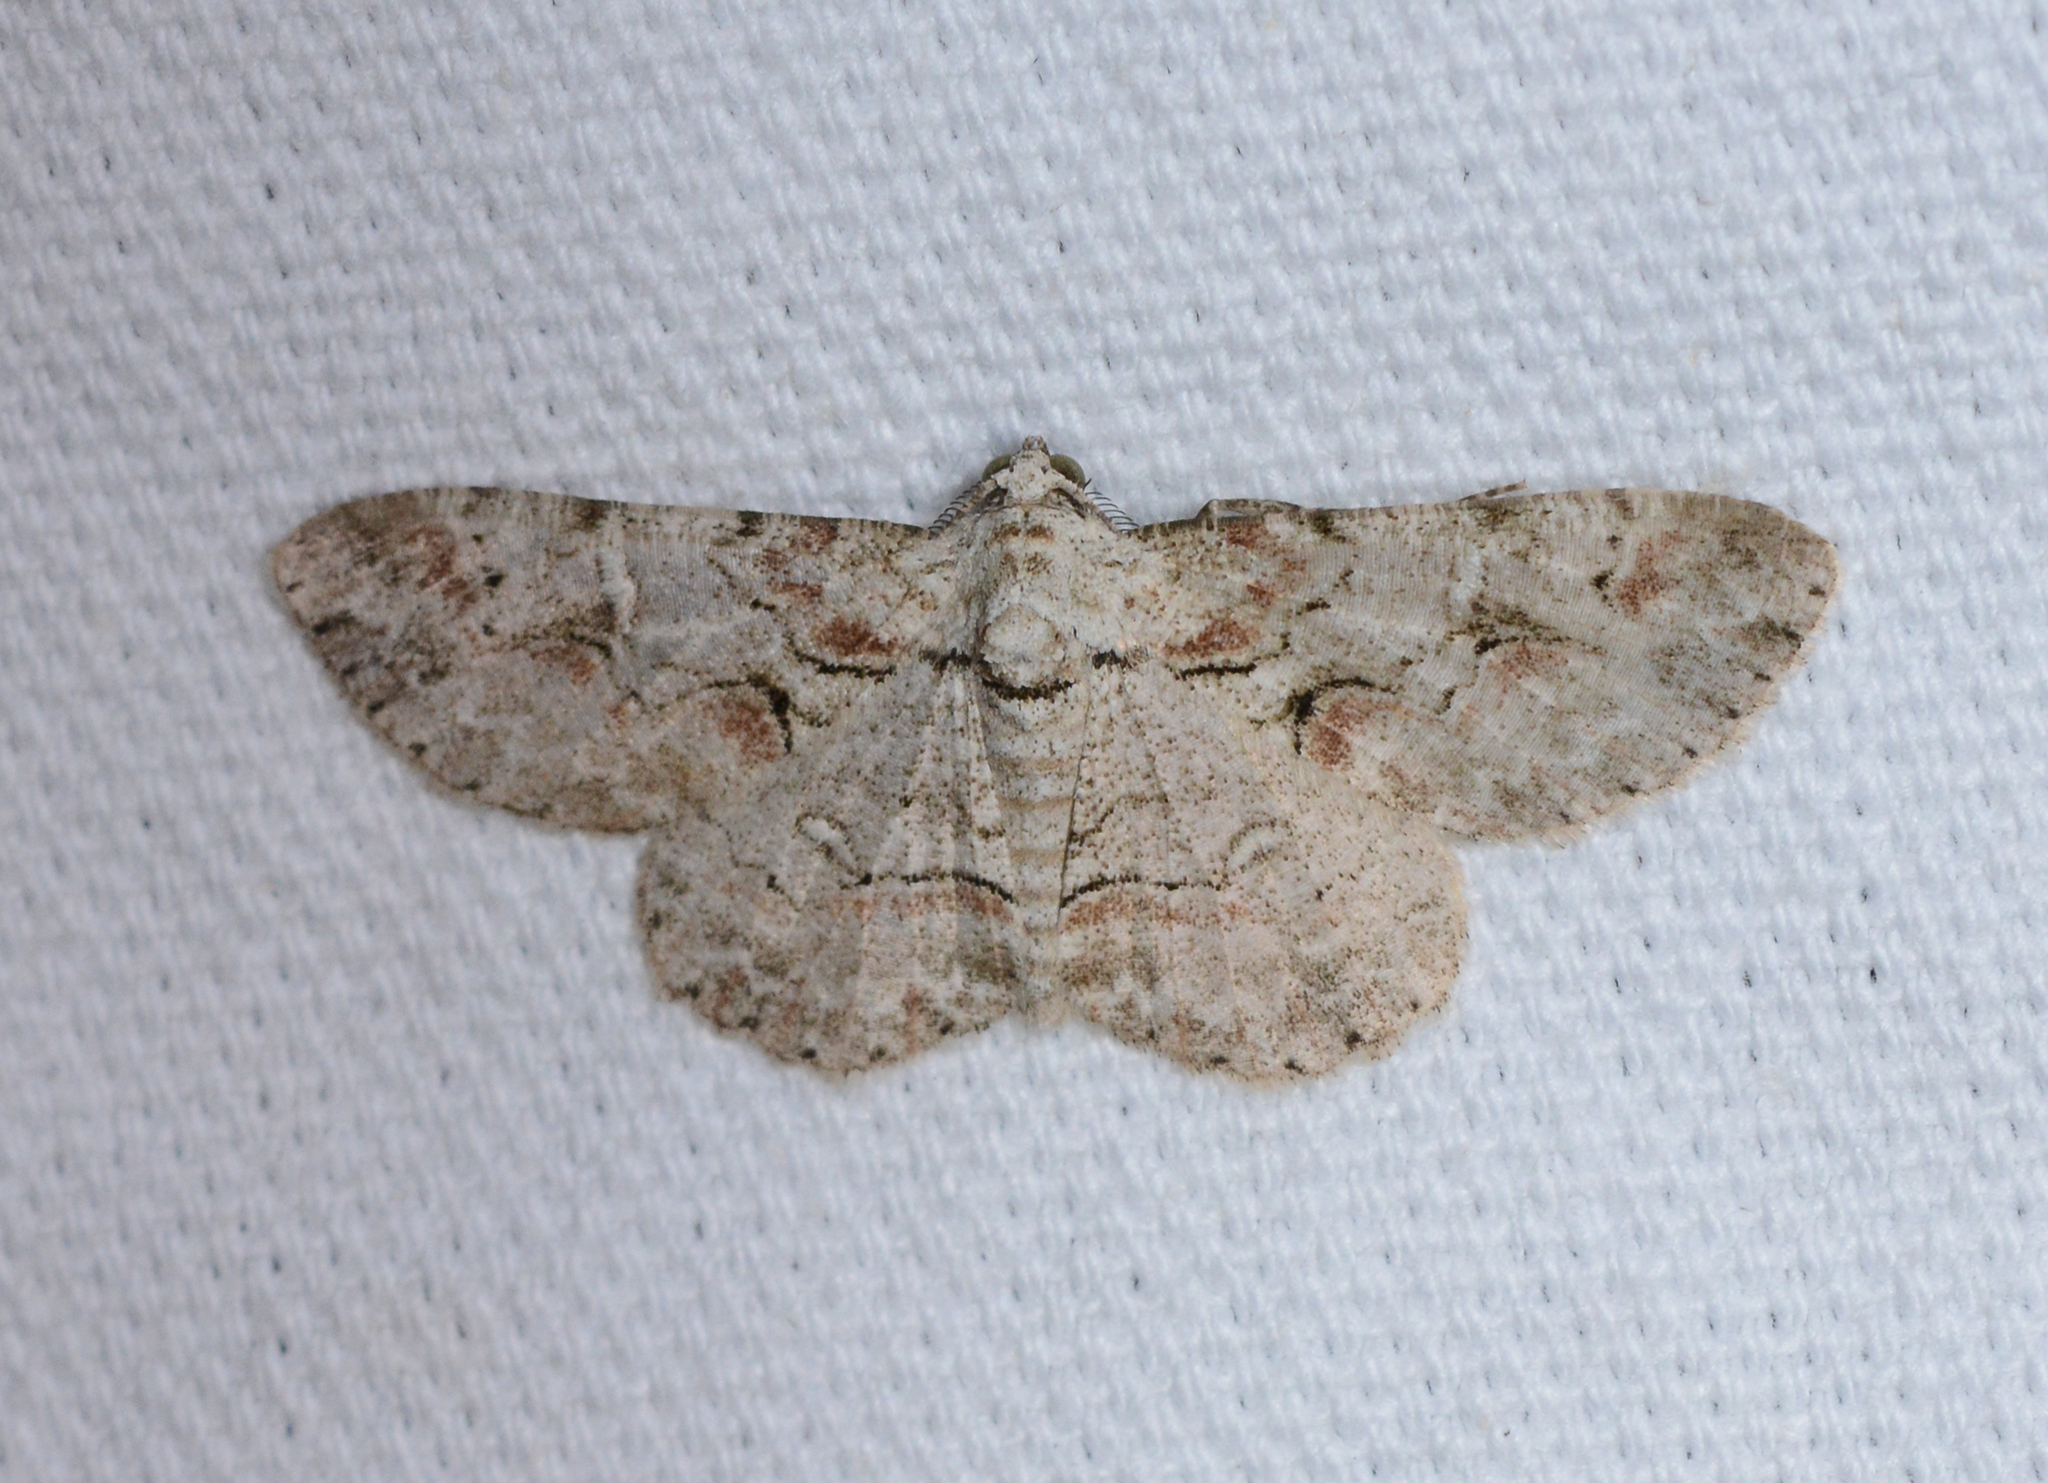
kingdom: Animalia
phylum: Arthropoda
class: Insecta
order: Lepidoptera
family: Geometridae
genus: Iridopsis
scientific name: Iridopsis defectaria
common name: Brown-shaded gray
